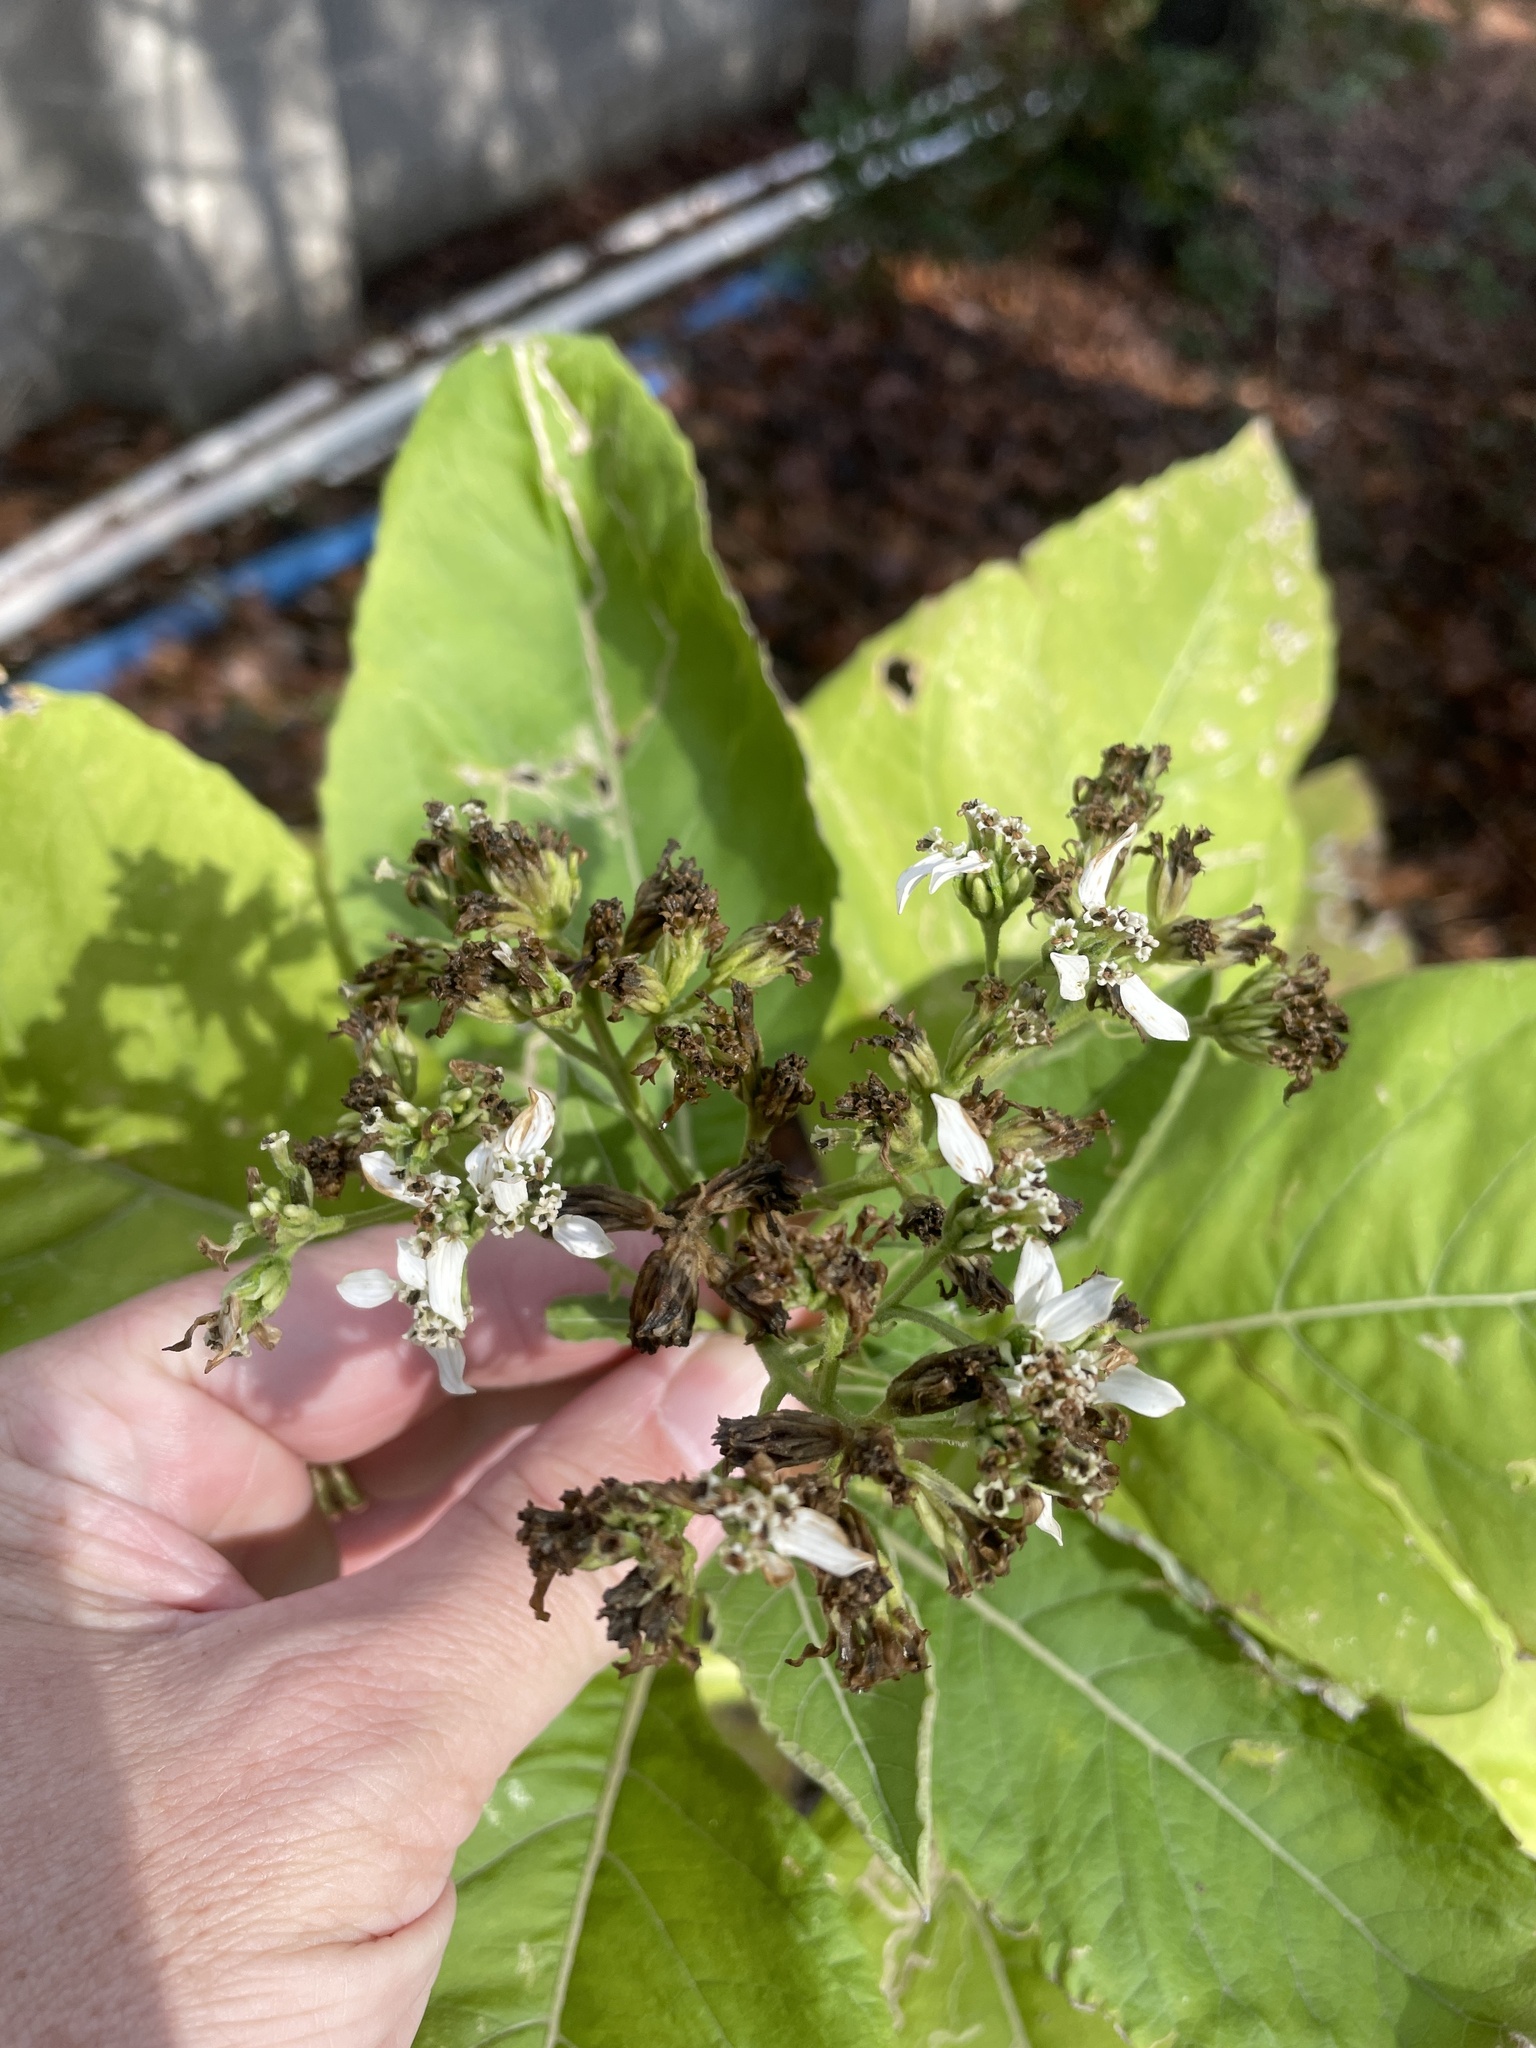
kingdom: Plantae
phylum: Tracheophyta
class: Magnoliopsida
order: Asterales
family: Asteraceae
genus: Verbesina
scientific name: Verbesina virginica
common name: Frostweed
